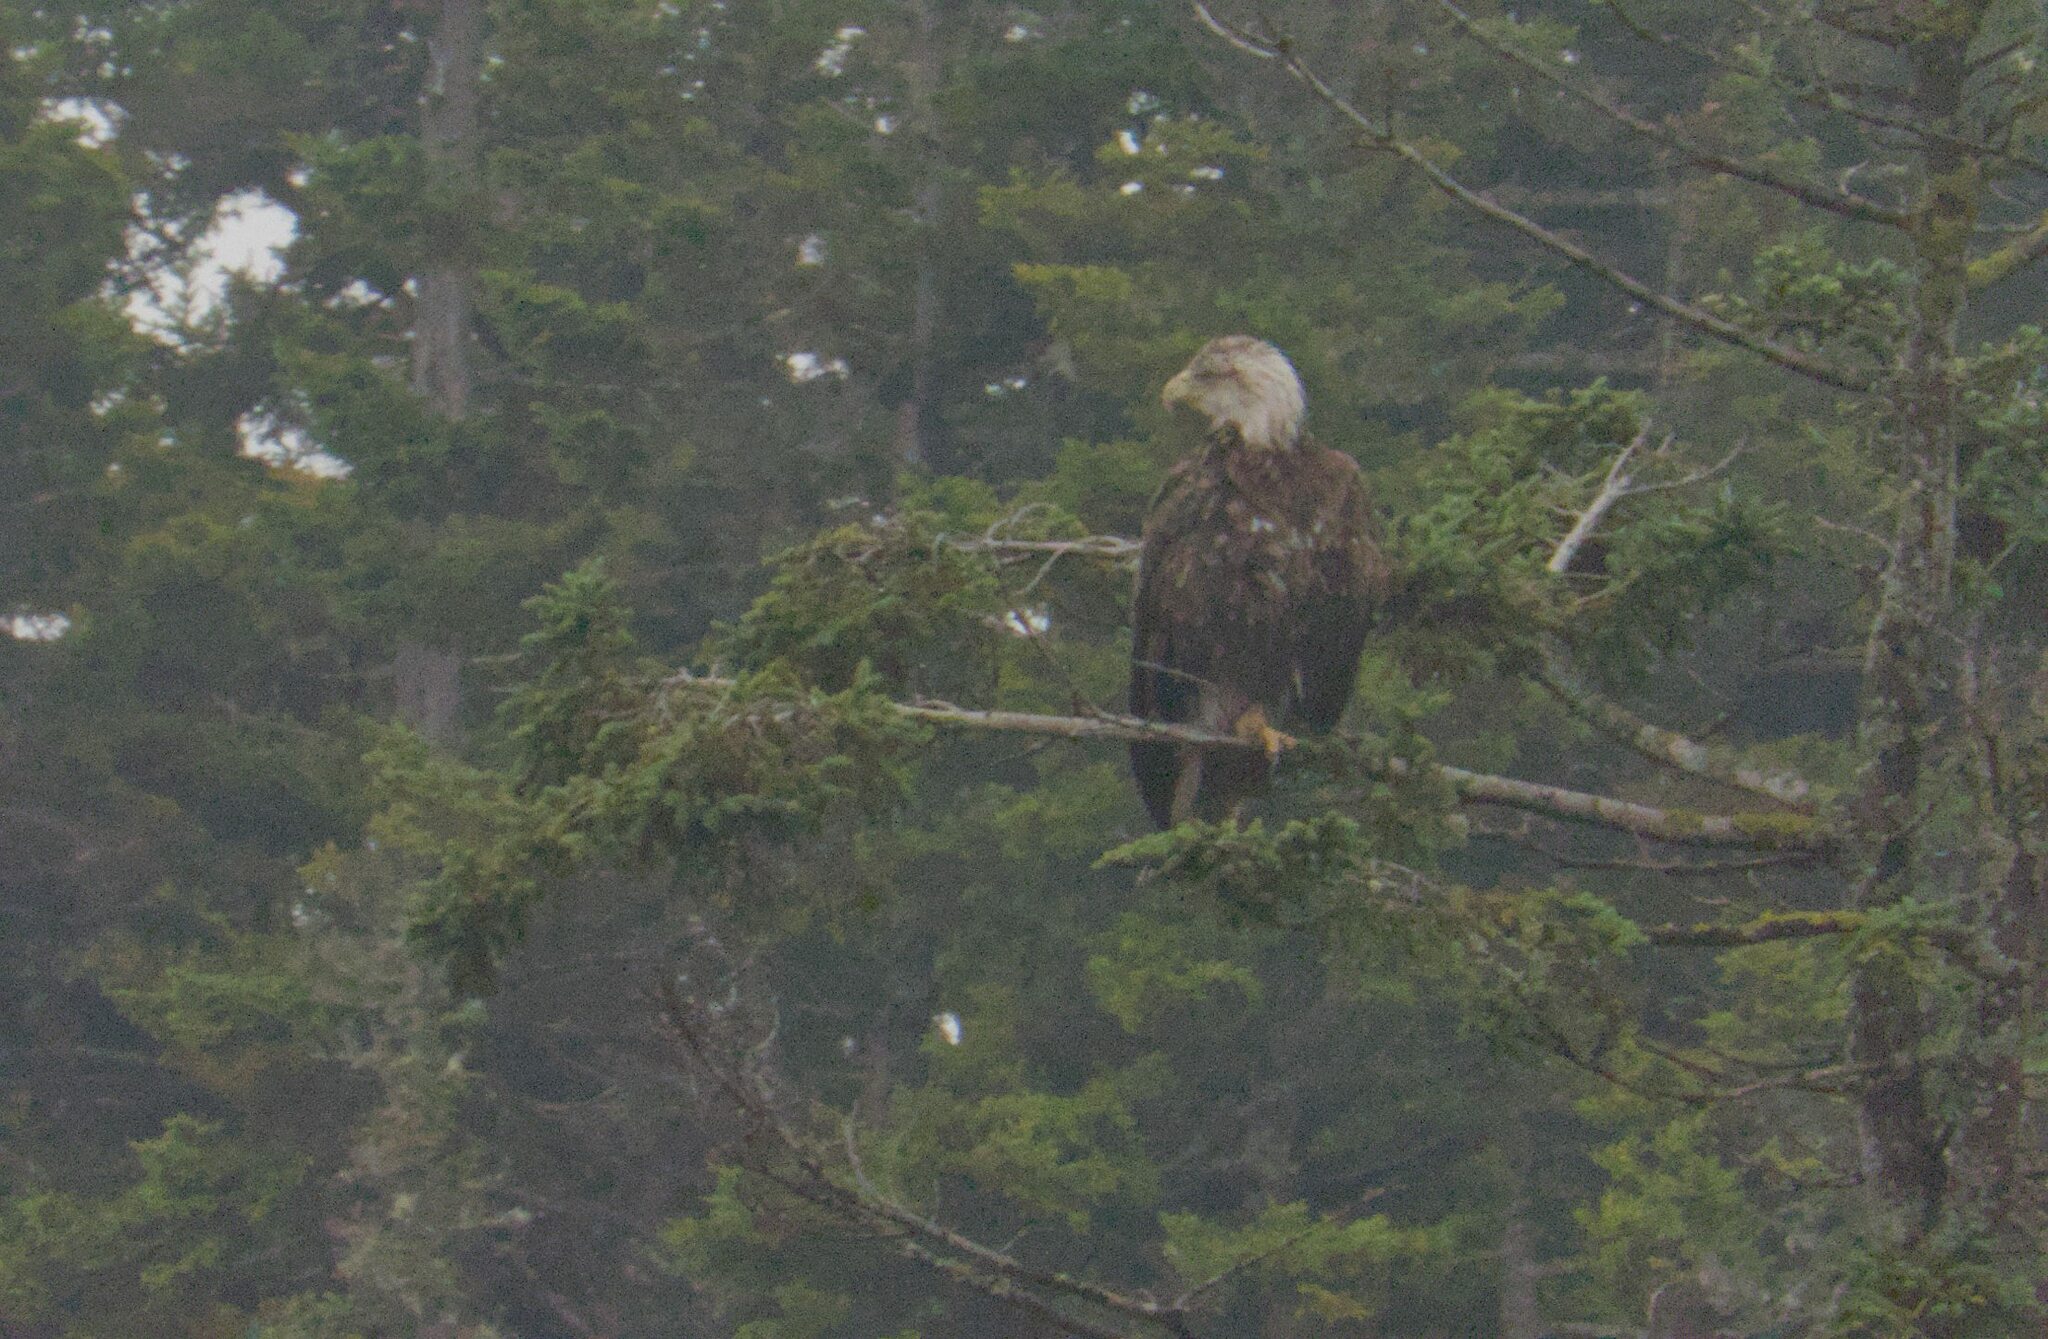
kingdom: Animalia
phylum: Chordata
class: Aves
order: Accipitriformes
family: Accipitridae
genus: Haliaeetus
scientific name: Haliaeetus leucocephalus
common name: Bald eagle
